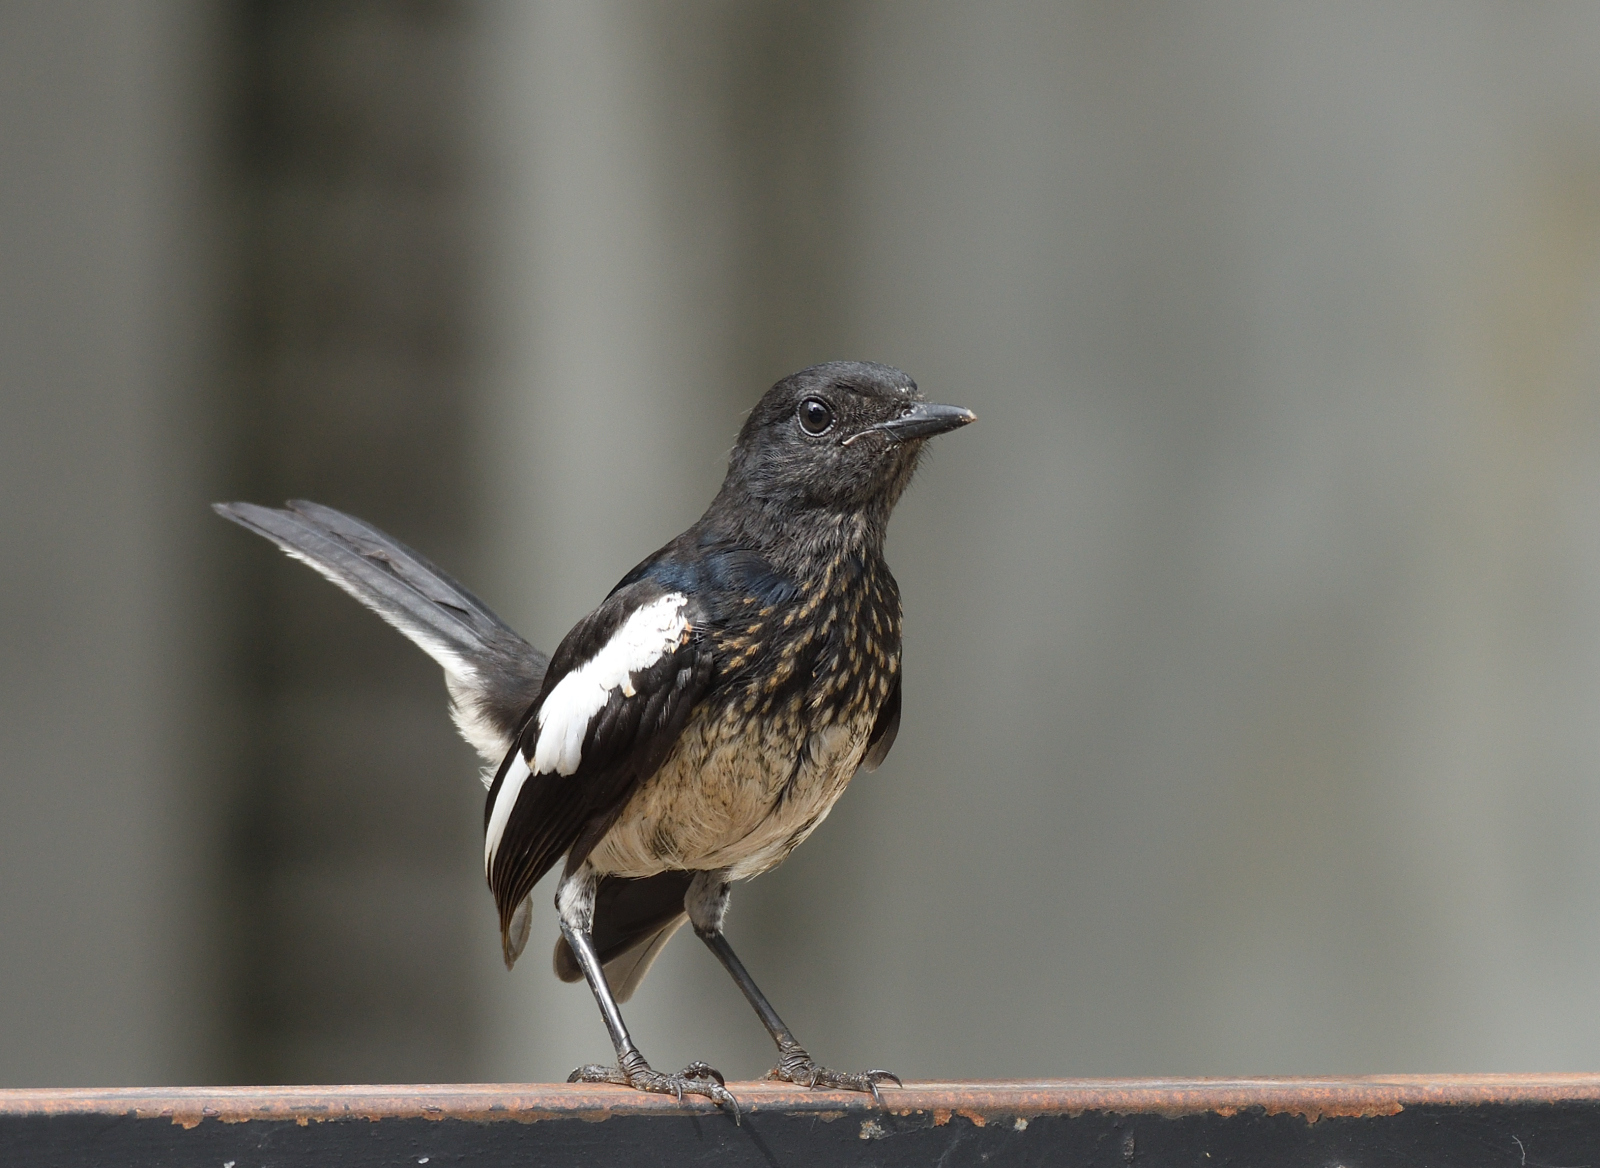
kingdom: Animalia
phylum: Chordata
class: Aves
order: Passeriformes
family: Muscicapidae
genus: Copsychus
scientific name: Copsychus saularis
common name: Oriental magpie-robin
